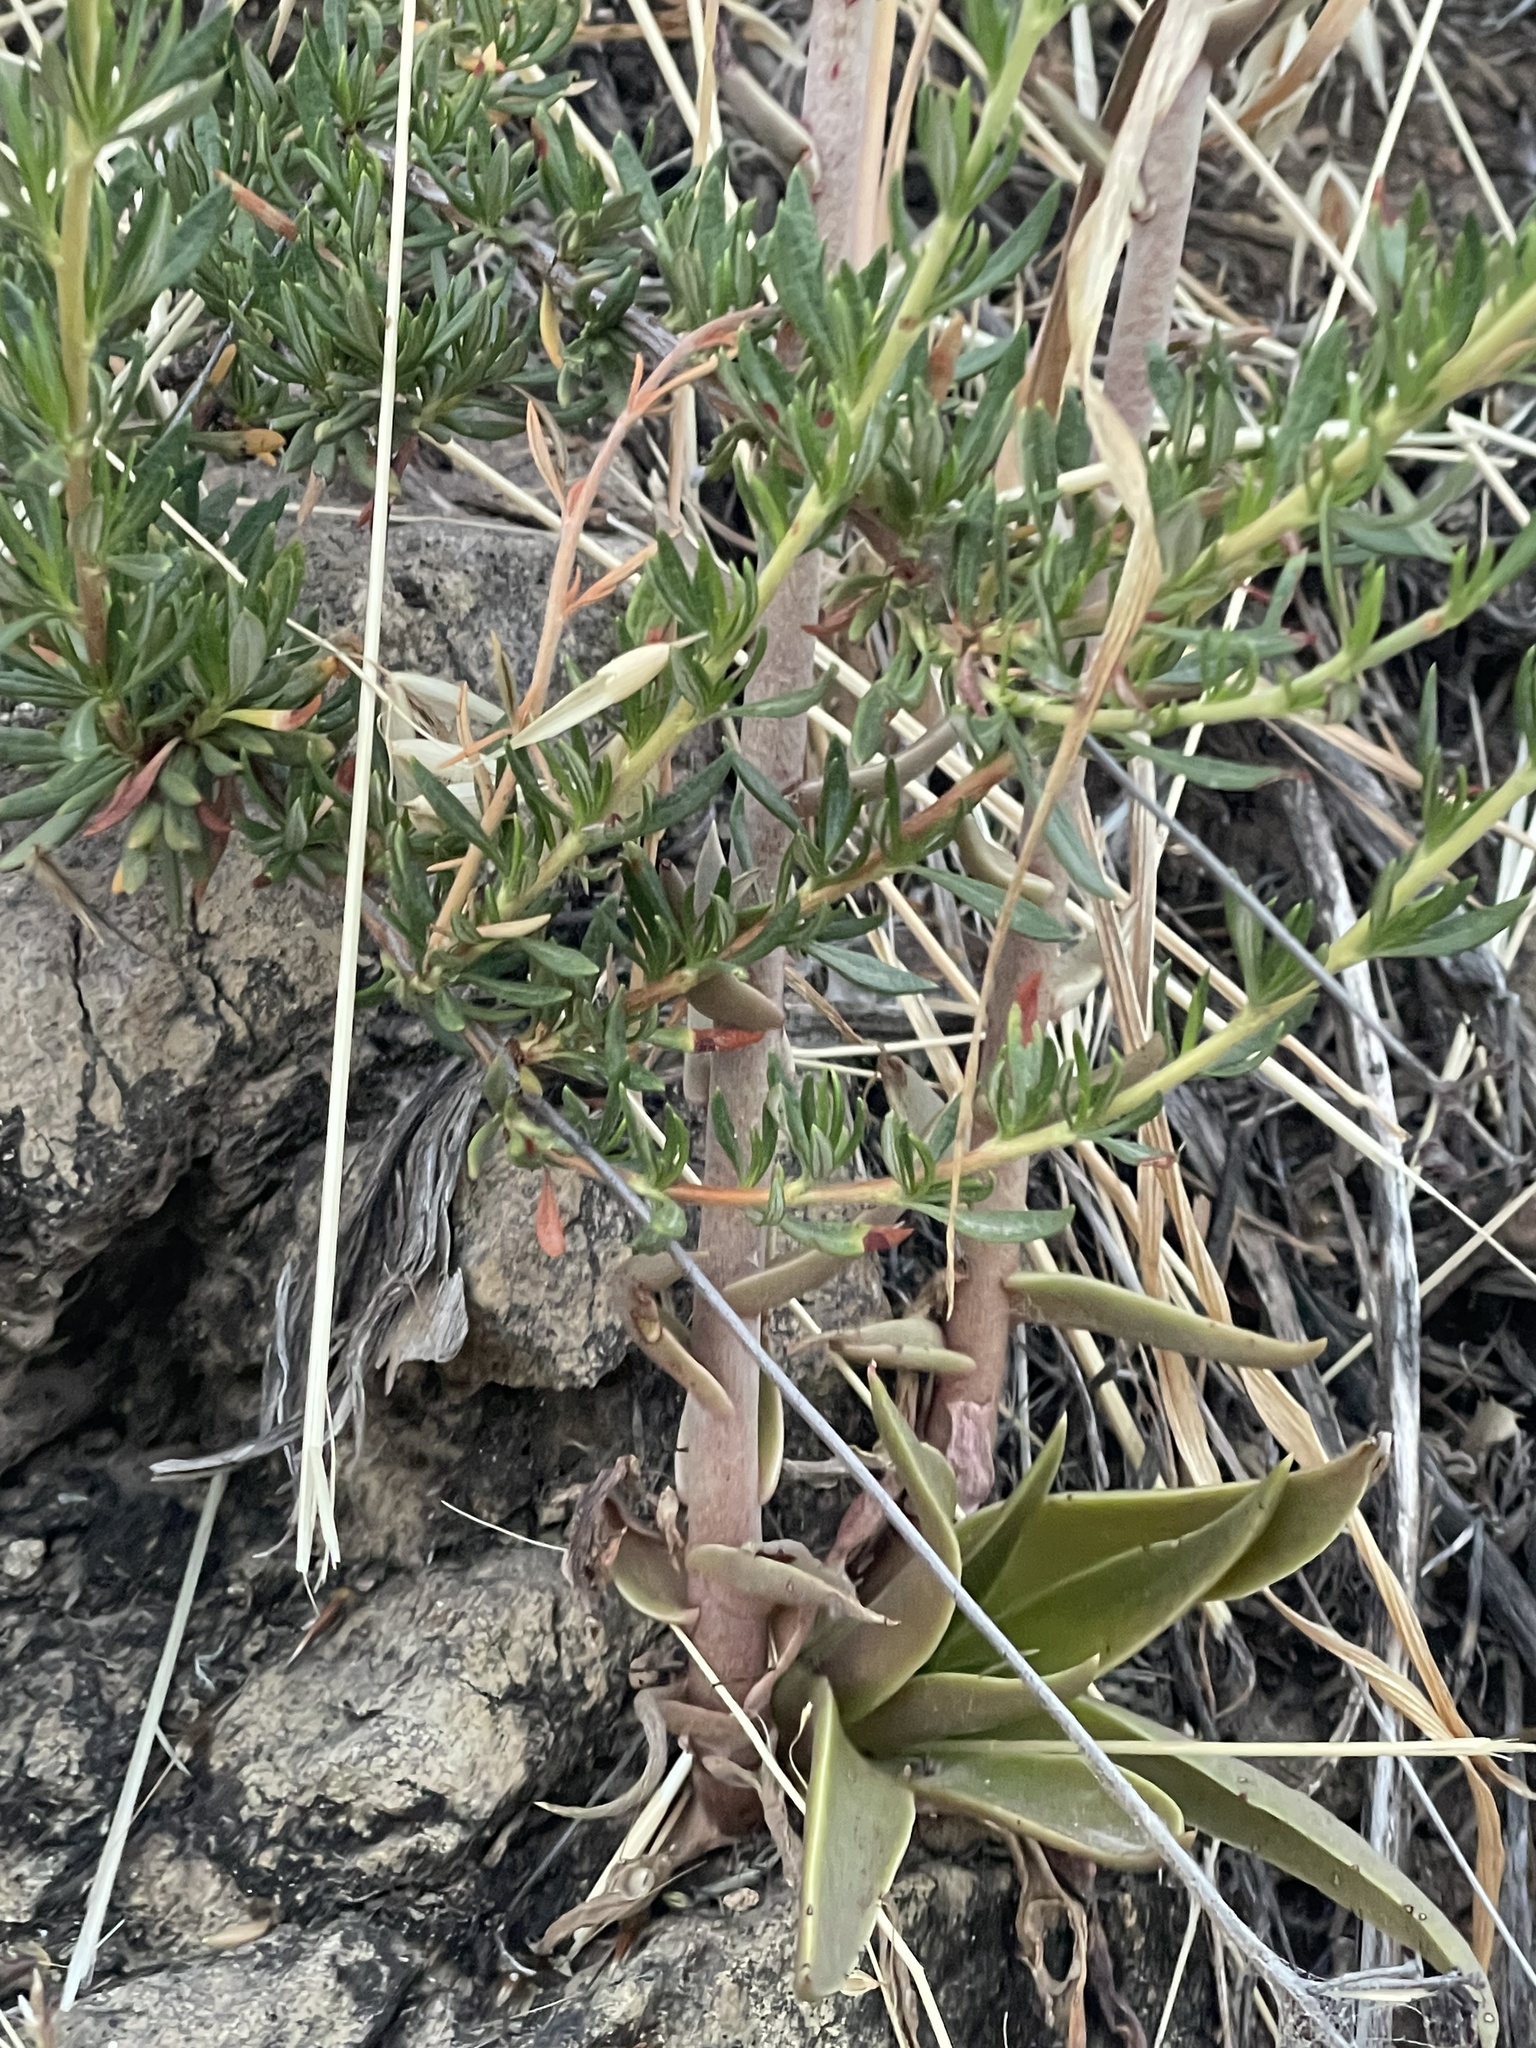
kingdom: Plantae
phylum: Tracheophyta
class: Magnoliopsida
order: Saxifragales
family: Crassulaceae
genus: Dudleya
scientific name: Dudleya lanceolata
